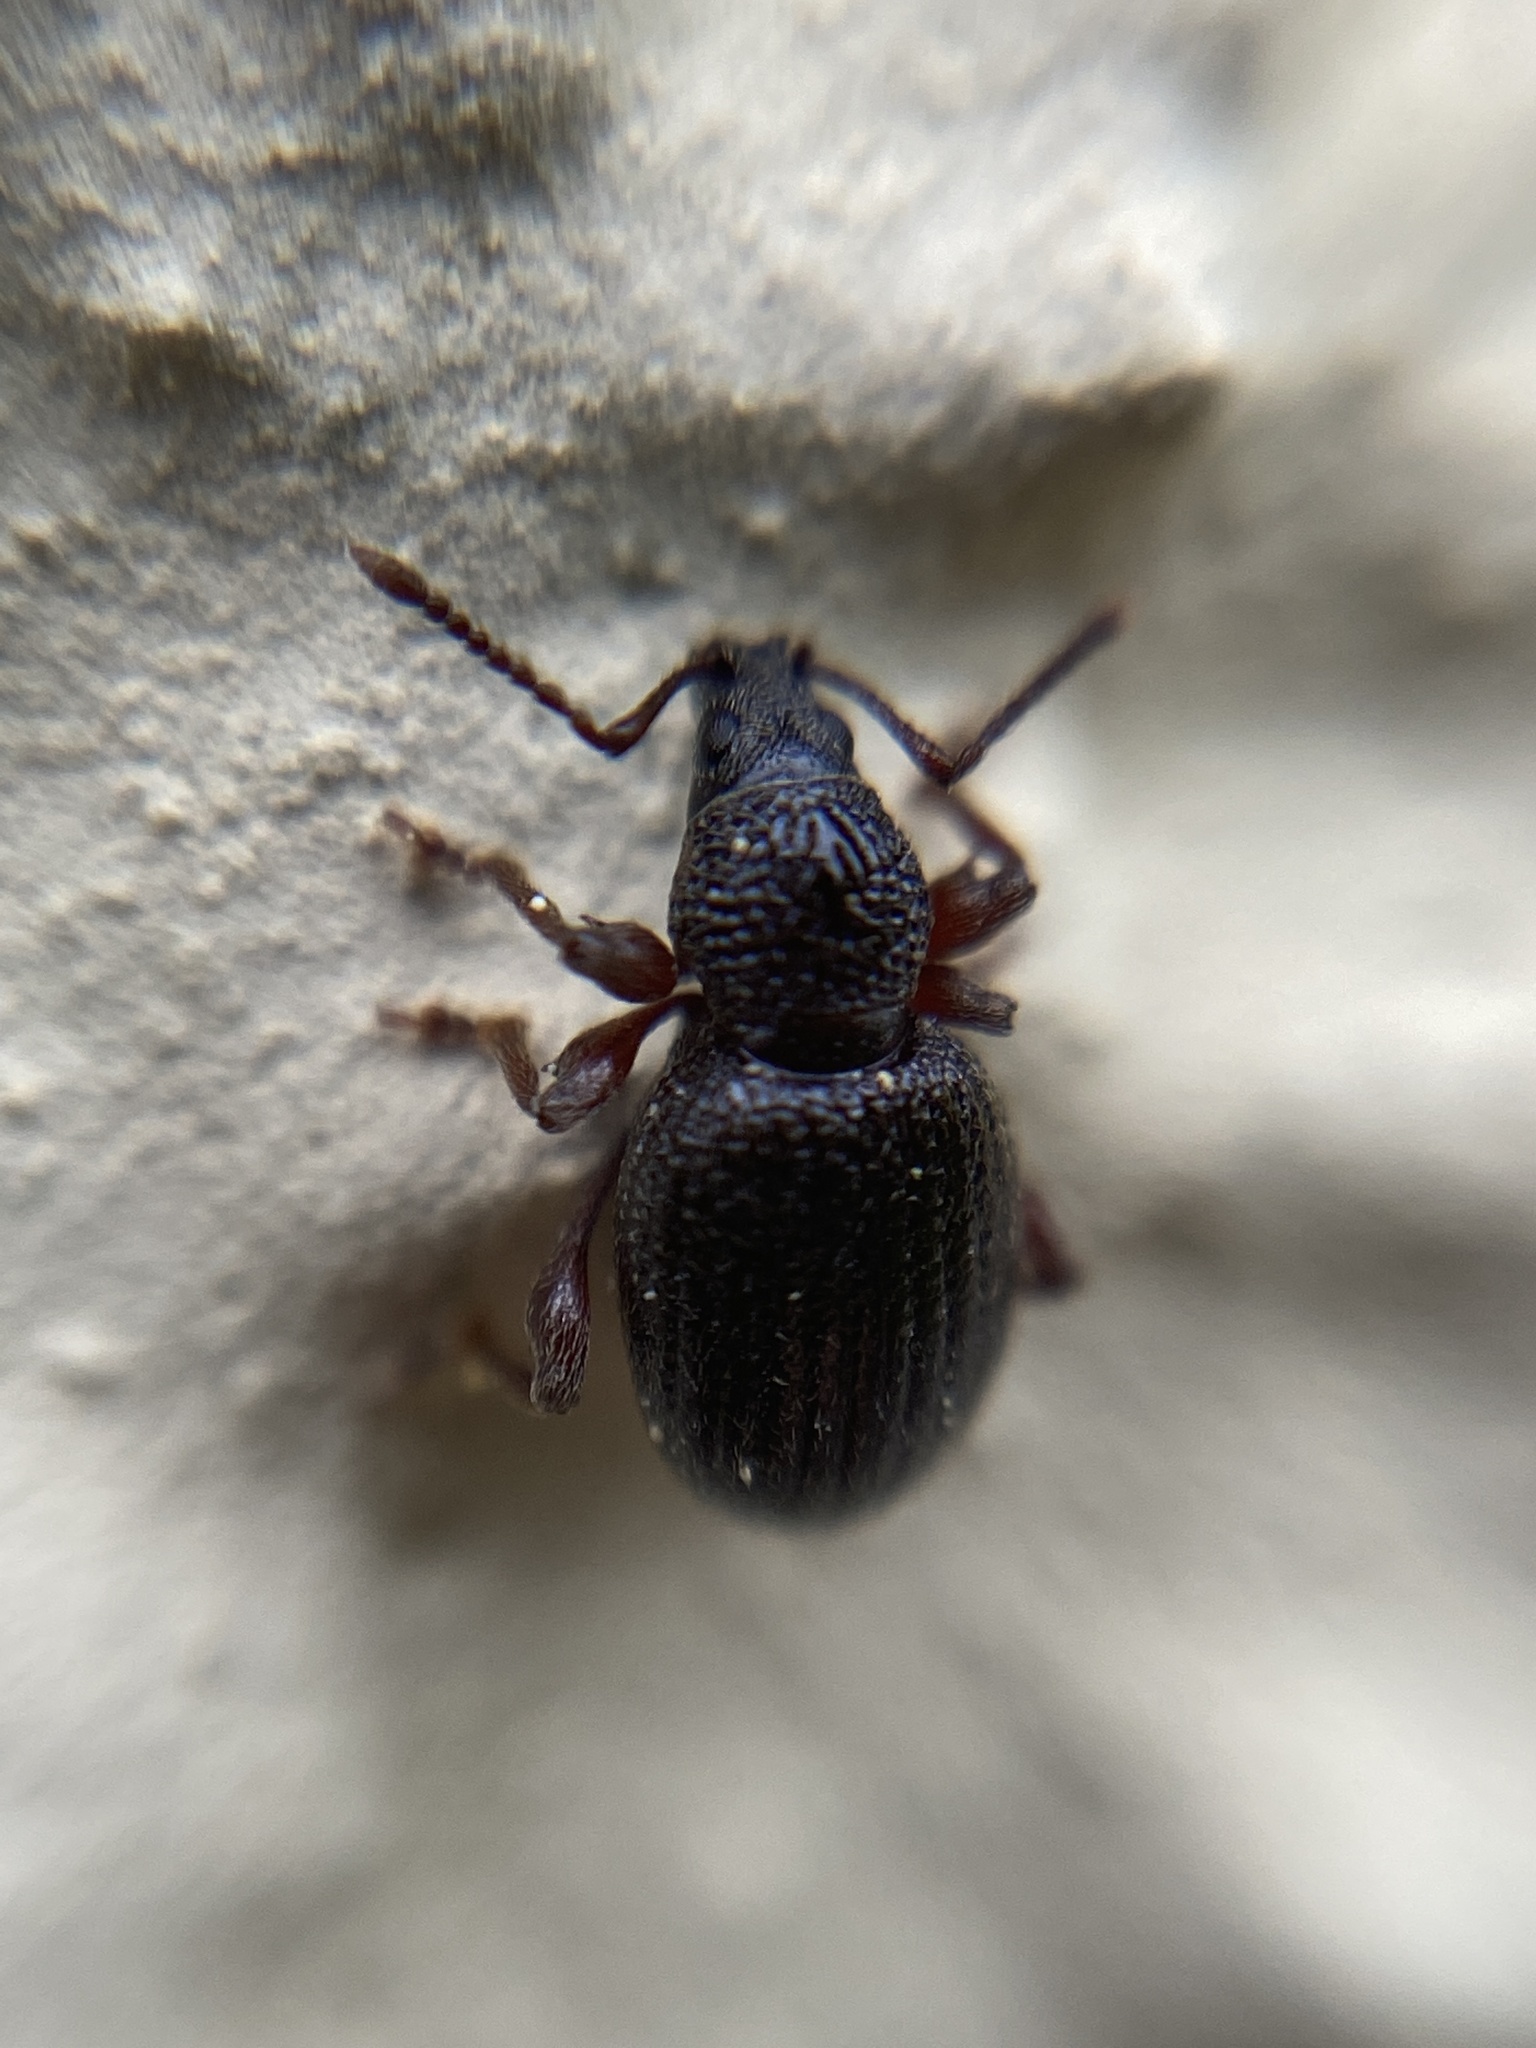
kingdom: Animalia
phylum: Arthropoda
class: Insecta
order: Coleoptera
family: Curculionidae
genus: Otiorhynchus
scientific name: Otiorhynchus ovatus
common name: Strawberry root weevil
